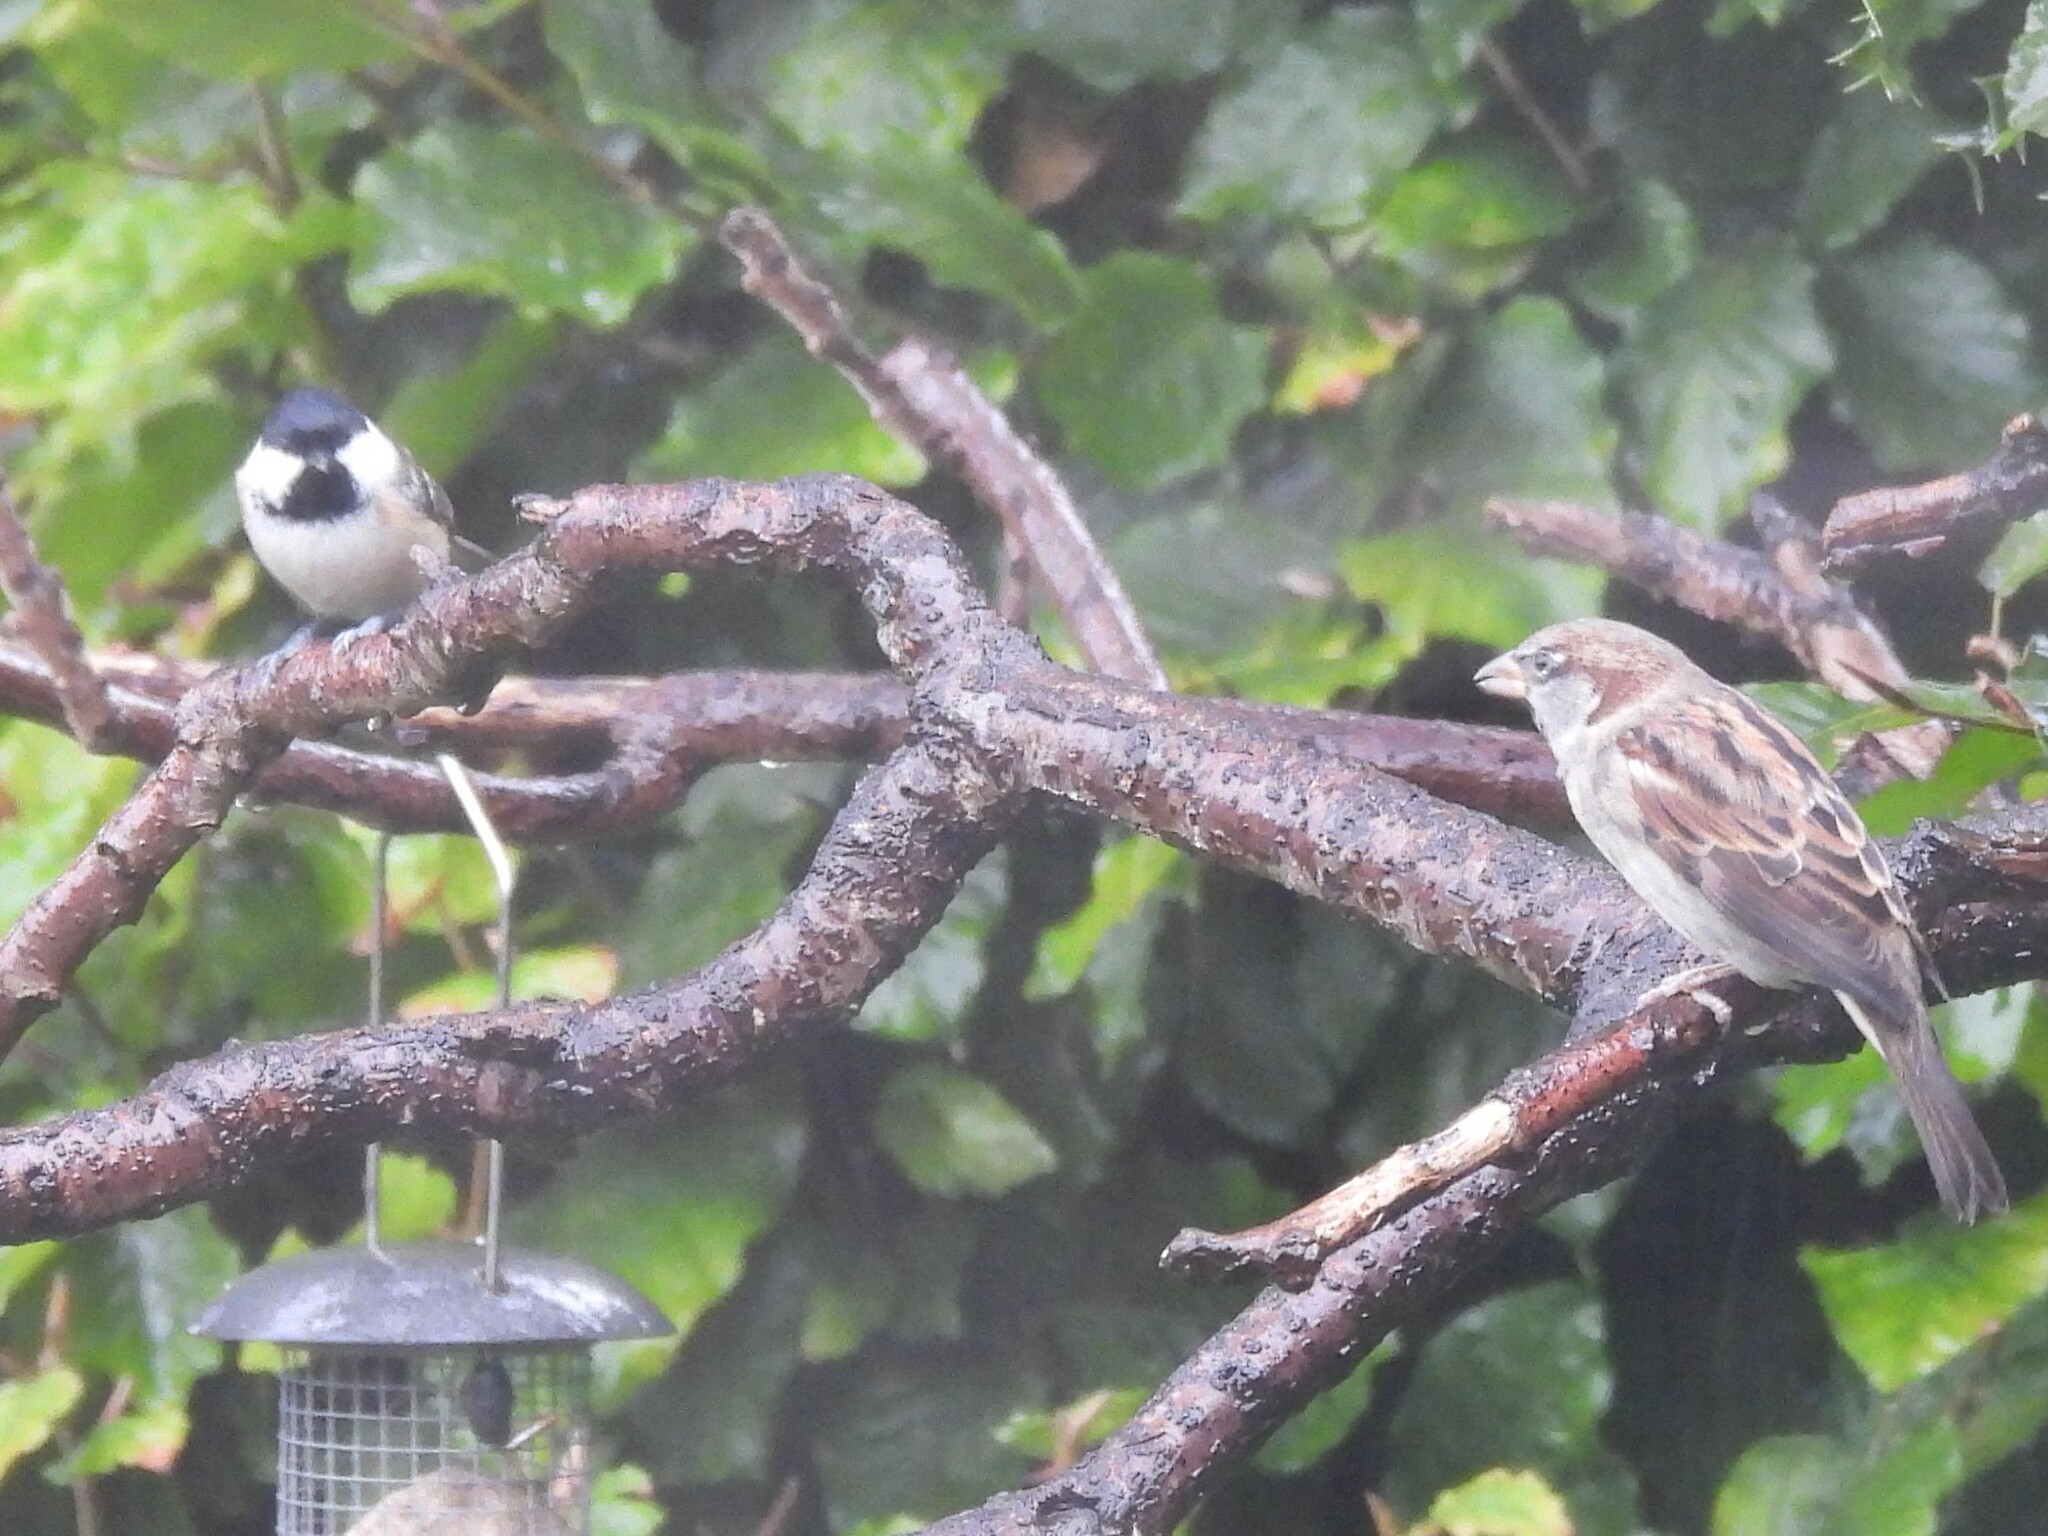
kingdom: Animalia
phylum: Chordata
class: Aves
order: Passeriformes
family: Passeridae
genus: Passer
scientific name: Passer domesticus
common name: House sparrow
